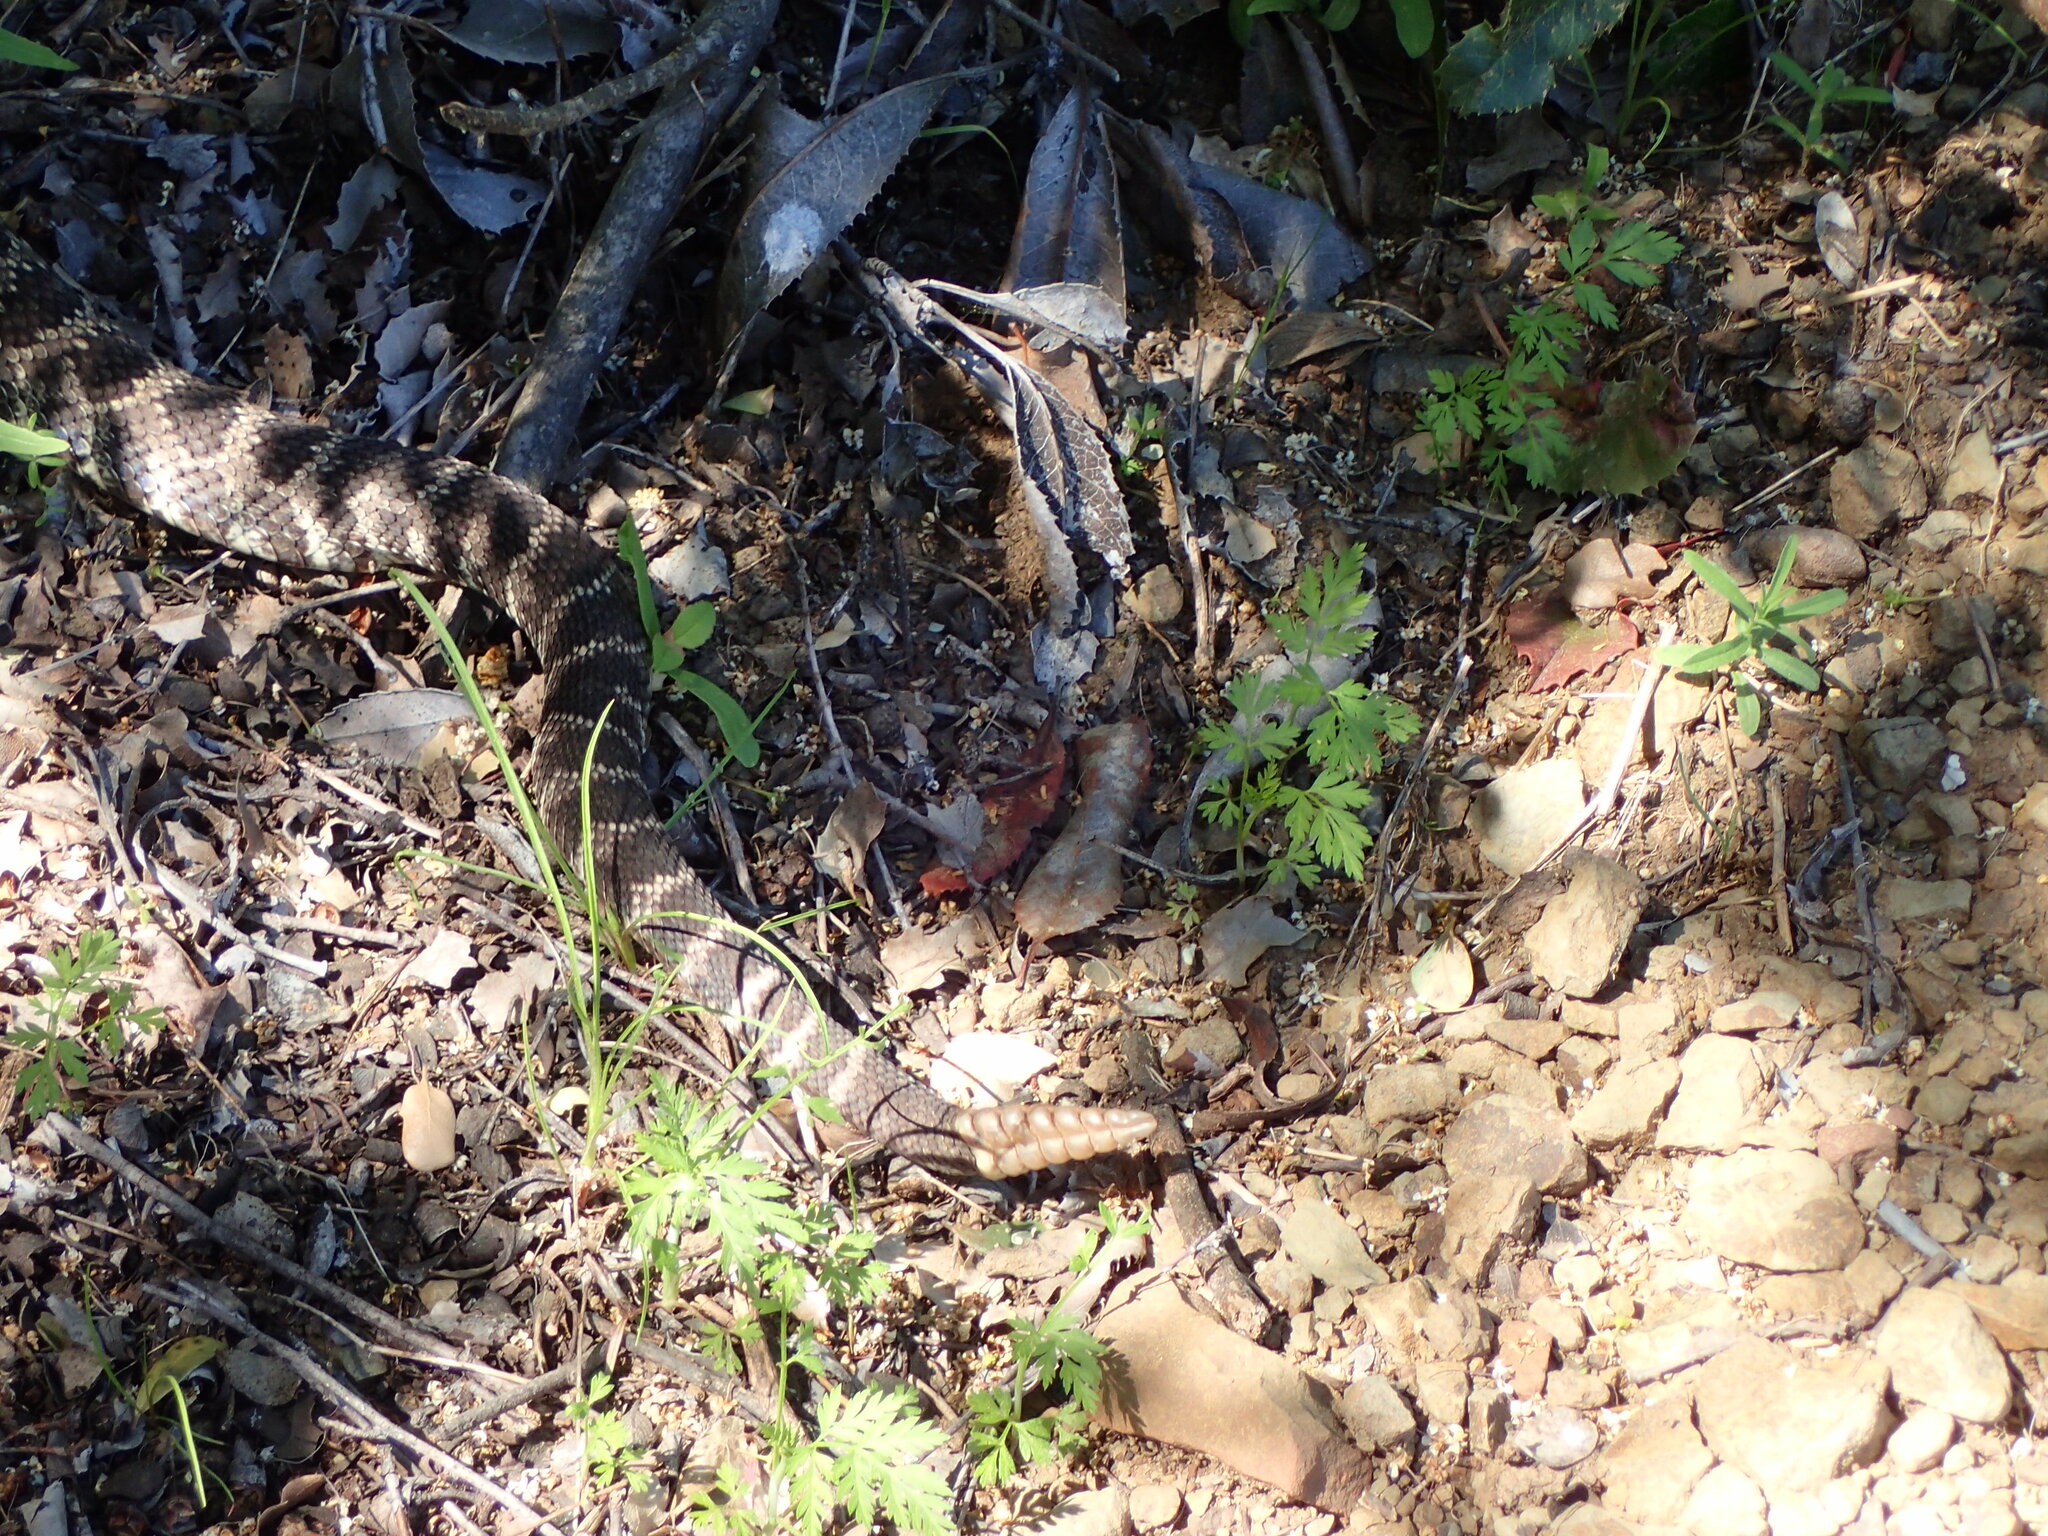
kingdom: Animalia
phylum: Chordata
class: Squamata
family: Viperidae
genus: Crotalus
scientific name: Crotalus oreganus
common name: Abyssus
